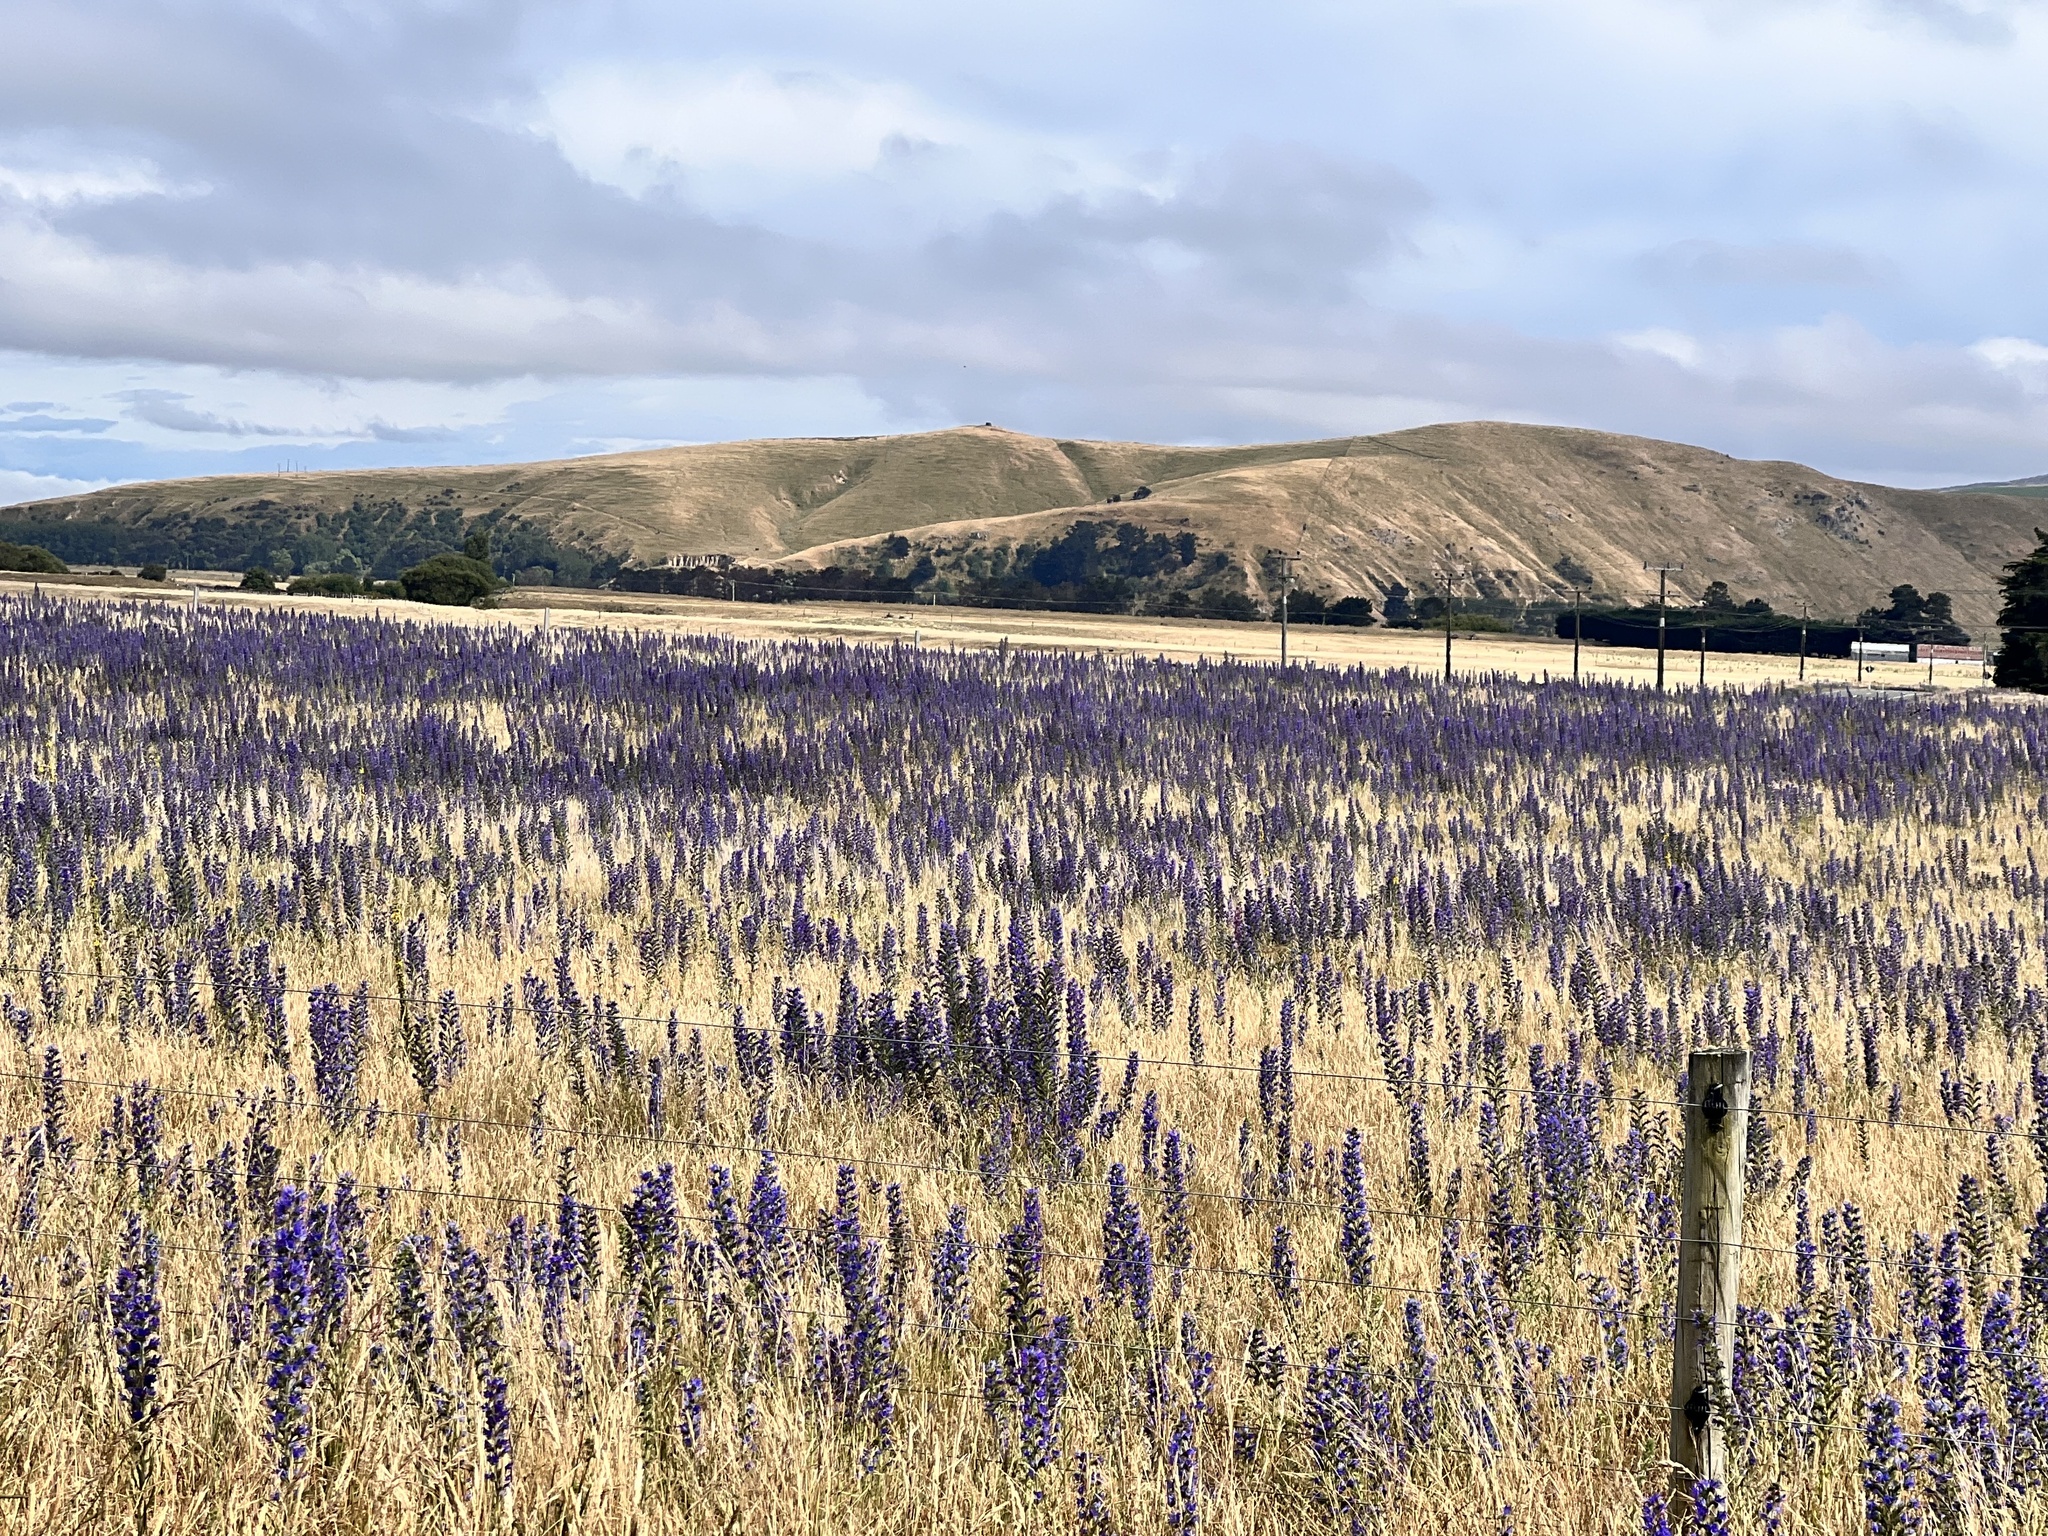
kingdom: Plantae
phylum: Tracheophyta
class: Magnoliopsida
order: Fabales
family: Fabaceae
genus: Lupinus
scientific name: Lupinus polyphyllus
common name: Garden lupin
